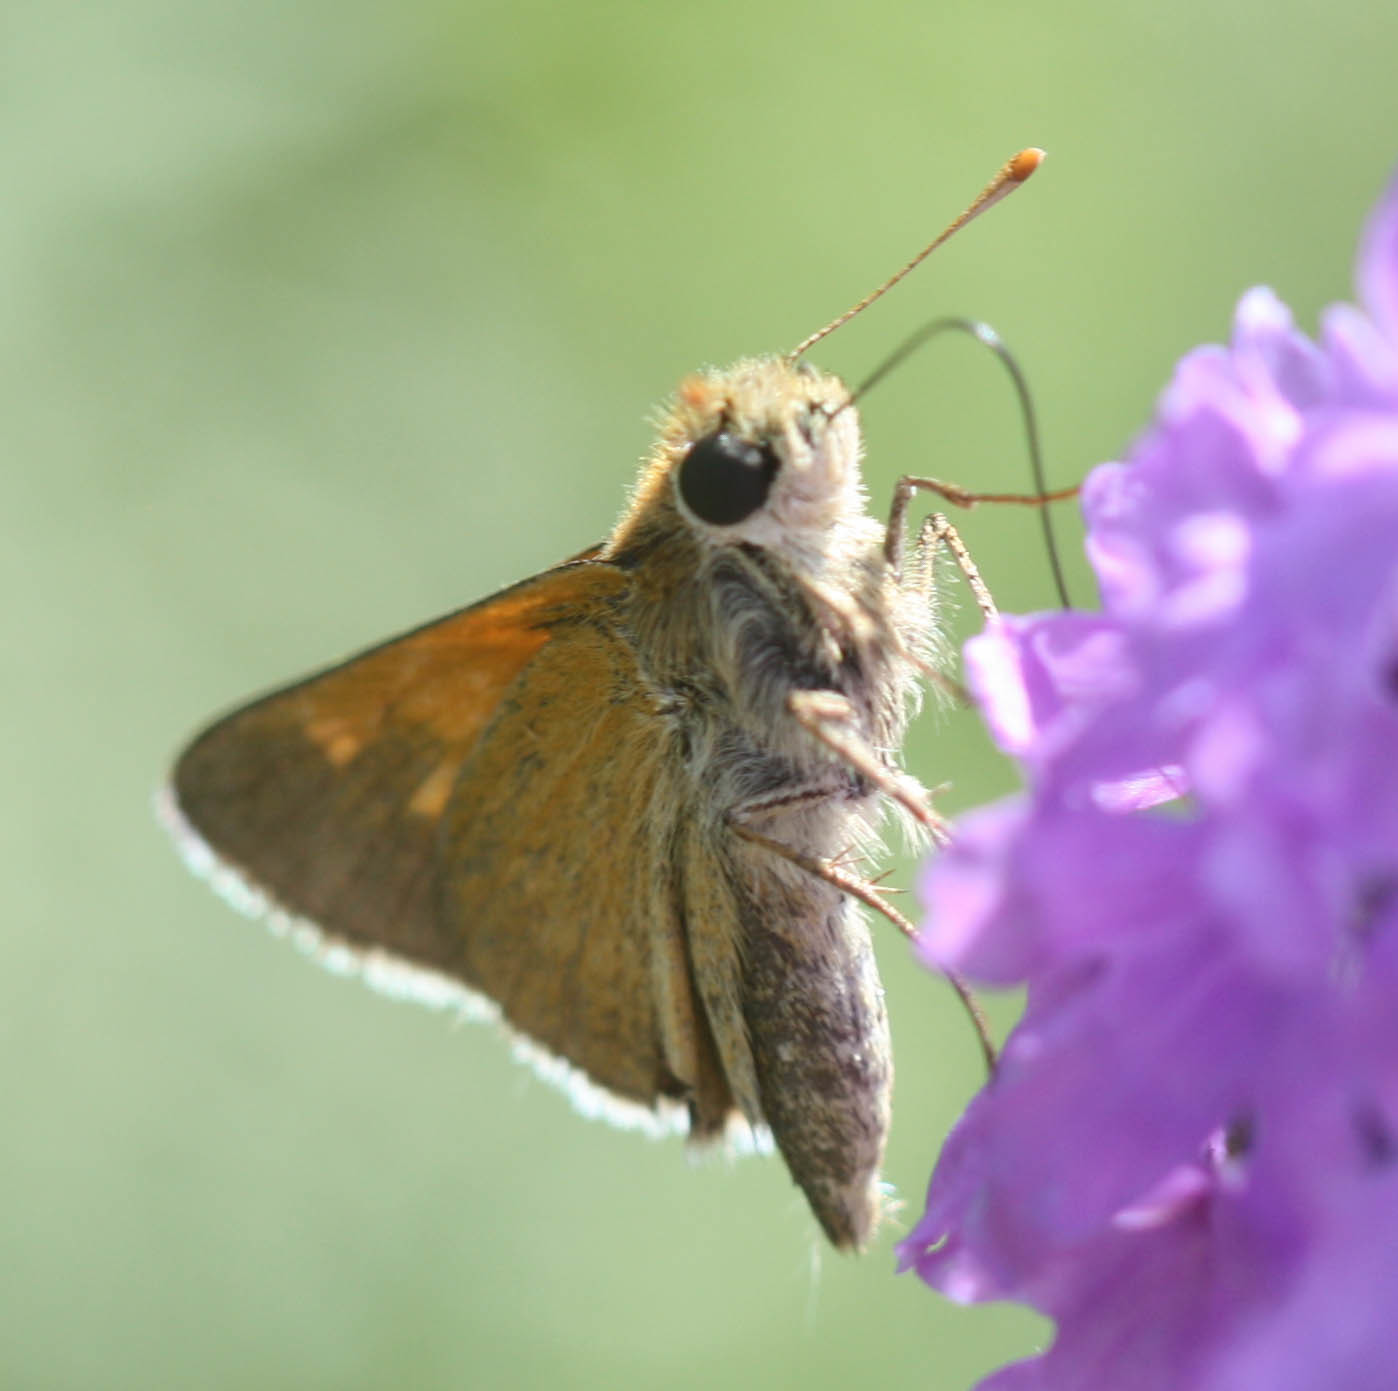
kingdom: Animalia
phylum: Arthropoda
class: Insecta
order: Lepidoptera
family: Hesperiidae
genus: Polites
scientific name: Polites themistocles
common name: Tawny-edged skipper
